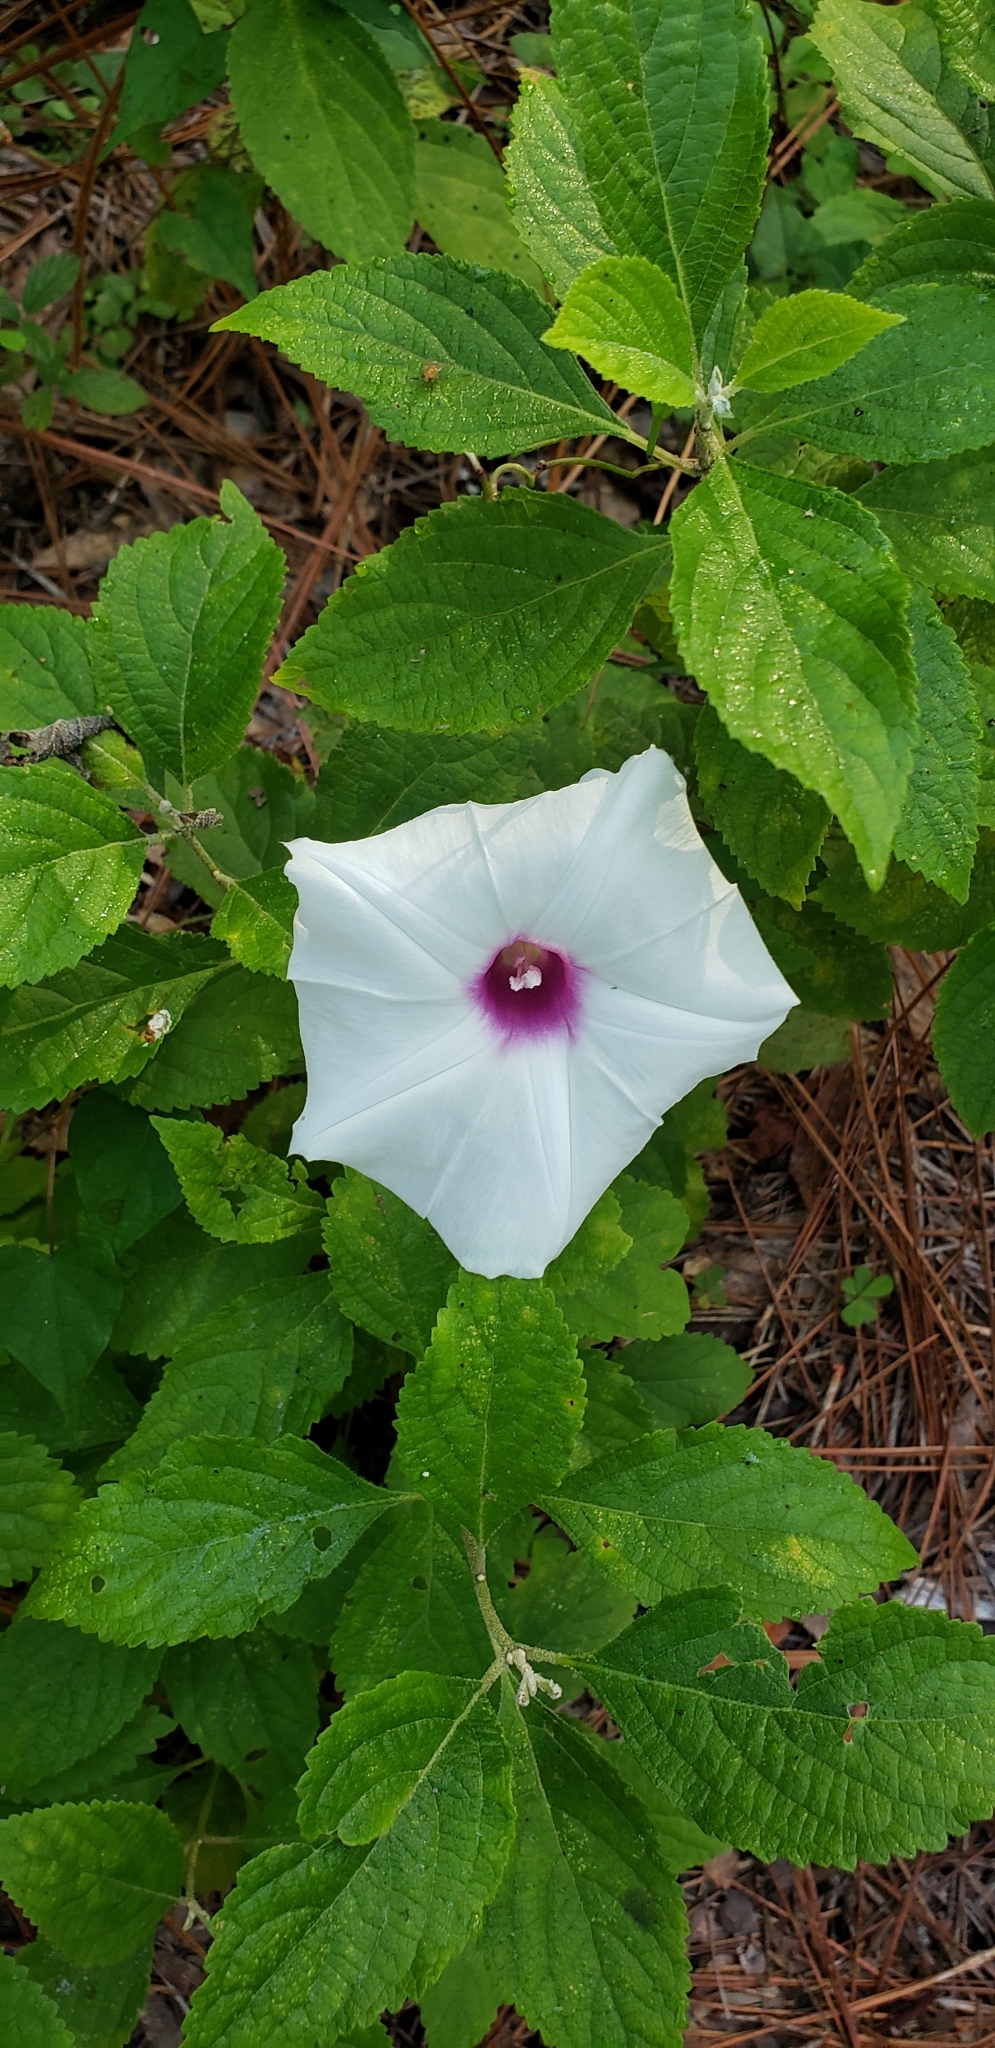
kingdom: Plantae
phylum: Tracheophyta
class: Magnoliopsida
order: Solanales
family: Convolvulaceae
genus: Ipomoea
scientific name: Ipomoea pandurata
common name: Man-of-the-earth
